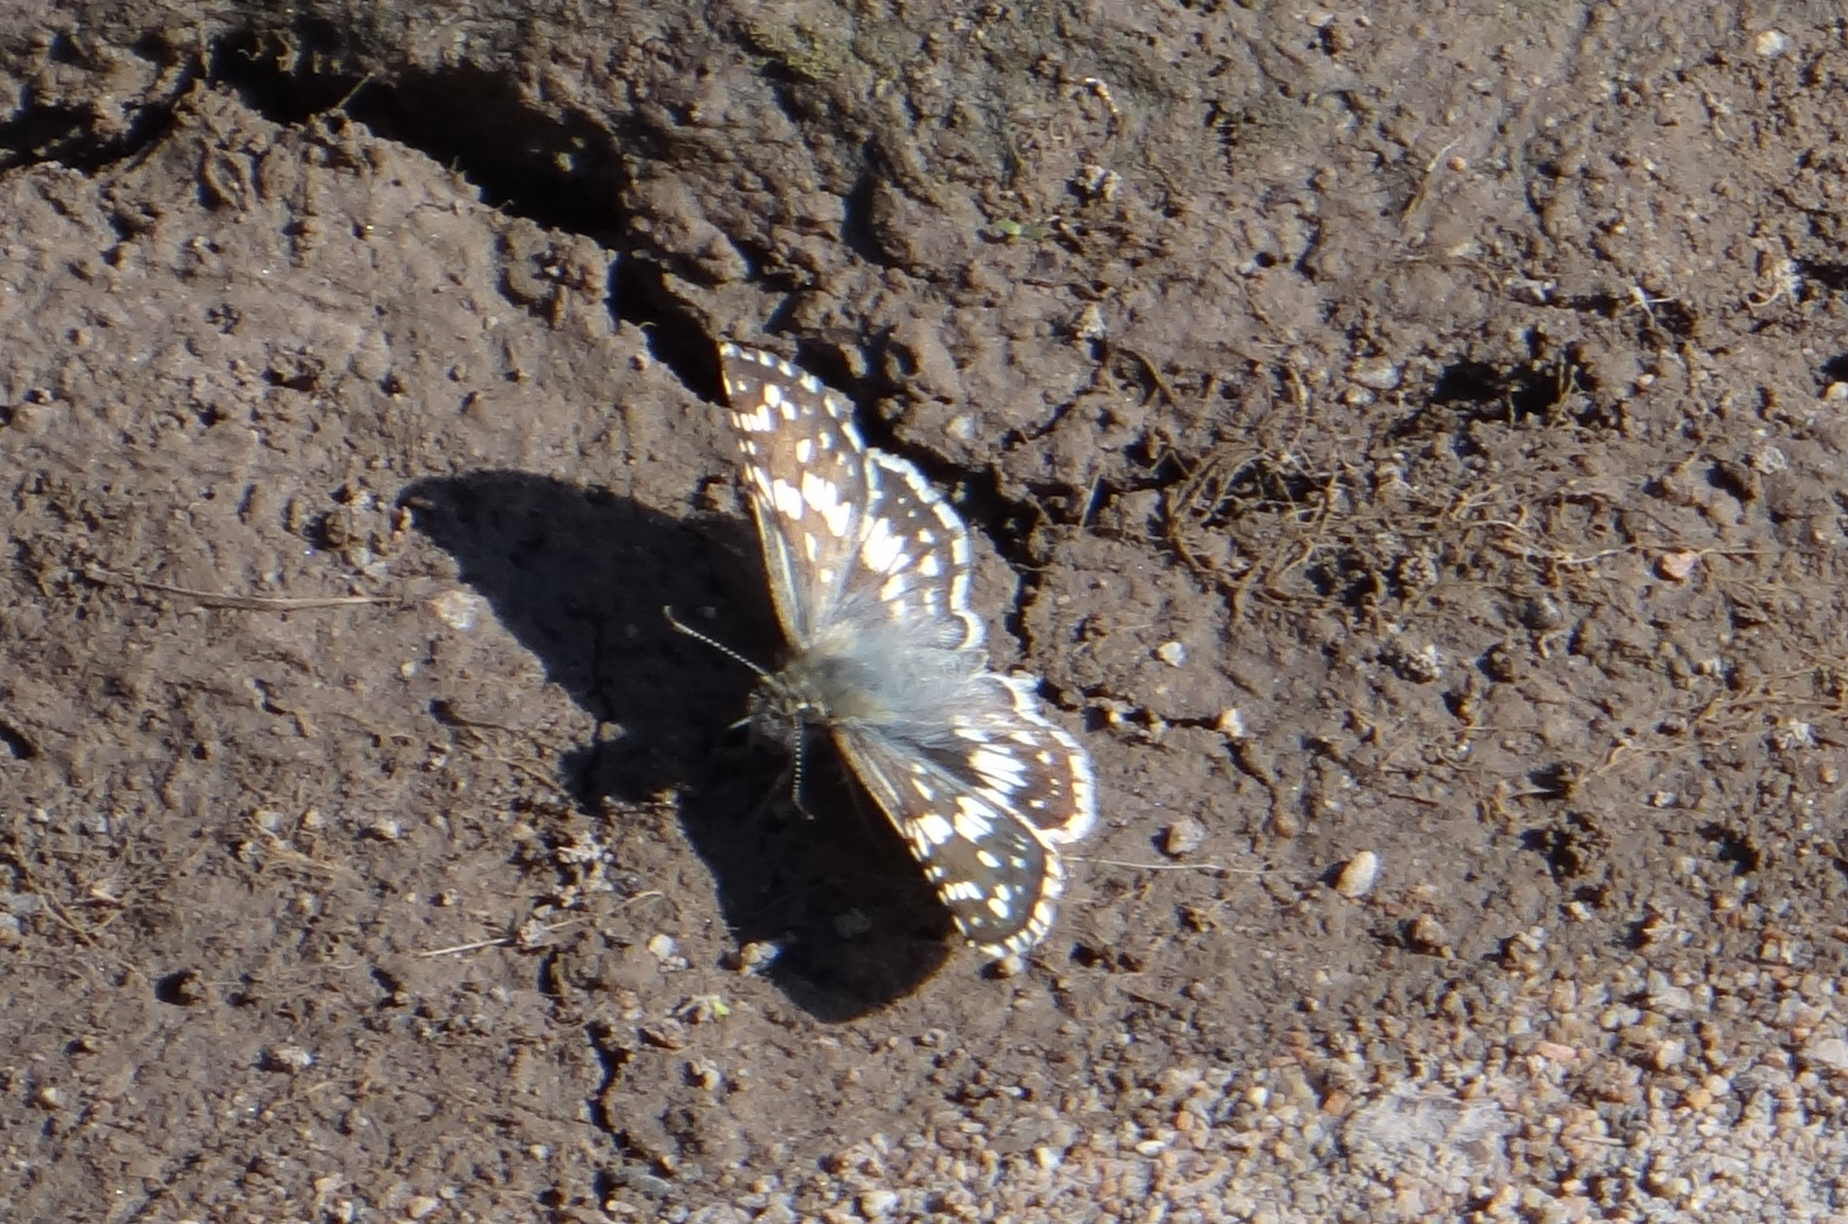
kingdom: Animalia
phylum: Arthropoda
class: Insecta
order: Lepidoptera
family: Hesperiidae
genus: Burnsius
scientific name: Burnsius orcynoides
